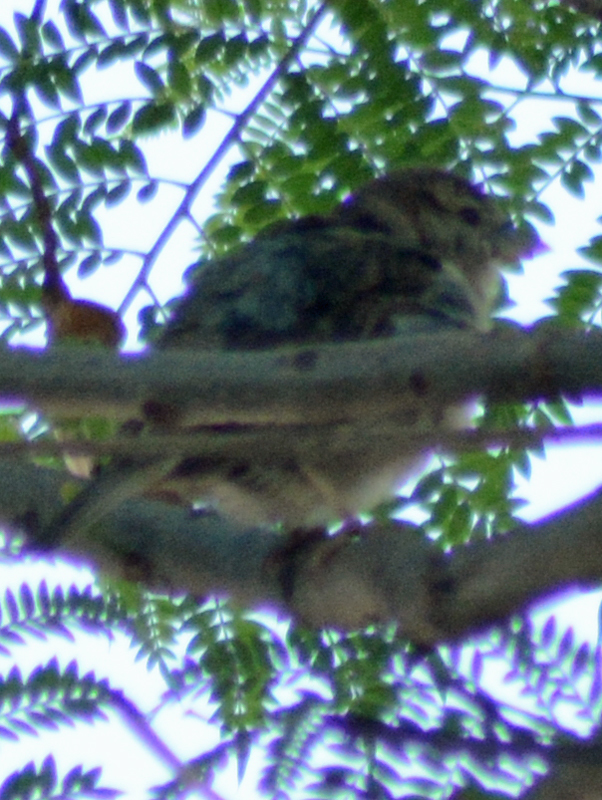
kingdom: Animalia
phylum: Chordata
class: Aves
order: Passeriformes
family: Passeridae
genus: Passer
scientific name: Passer domesticus
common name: House sparrow
